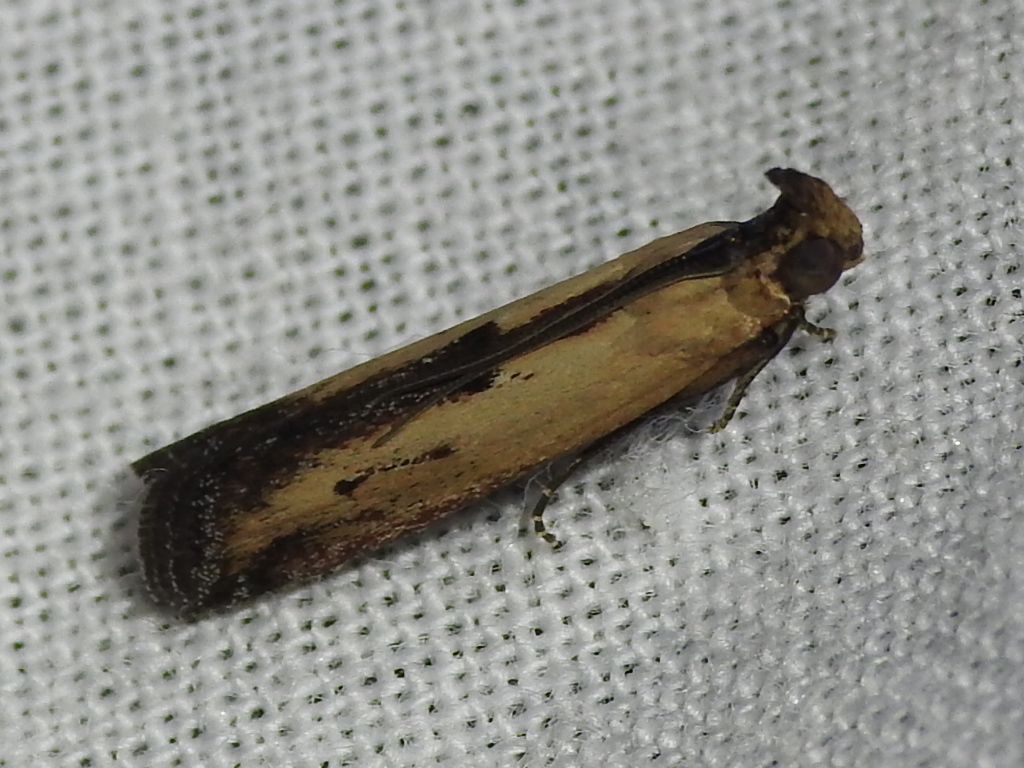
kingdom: Animalia
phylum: Arthropoda
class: Insecta
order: Lepidoptera
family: Pyralidae
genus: Elasmopalpus
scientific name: Elasmopalpus lignosella
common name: Lesser cornstalk borer
